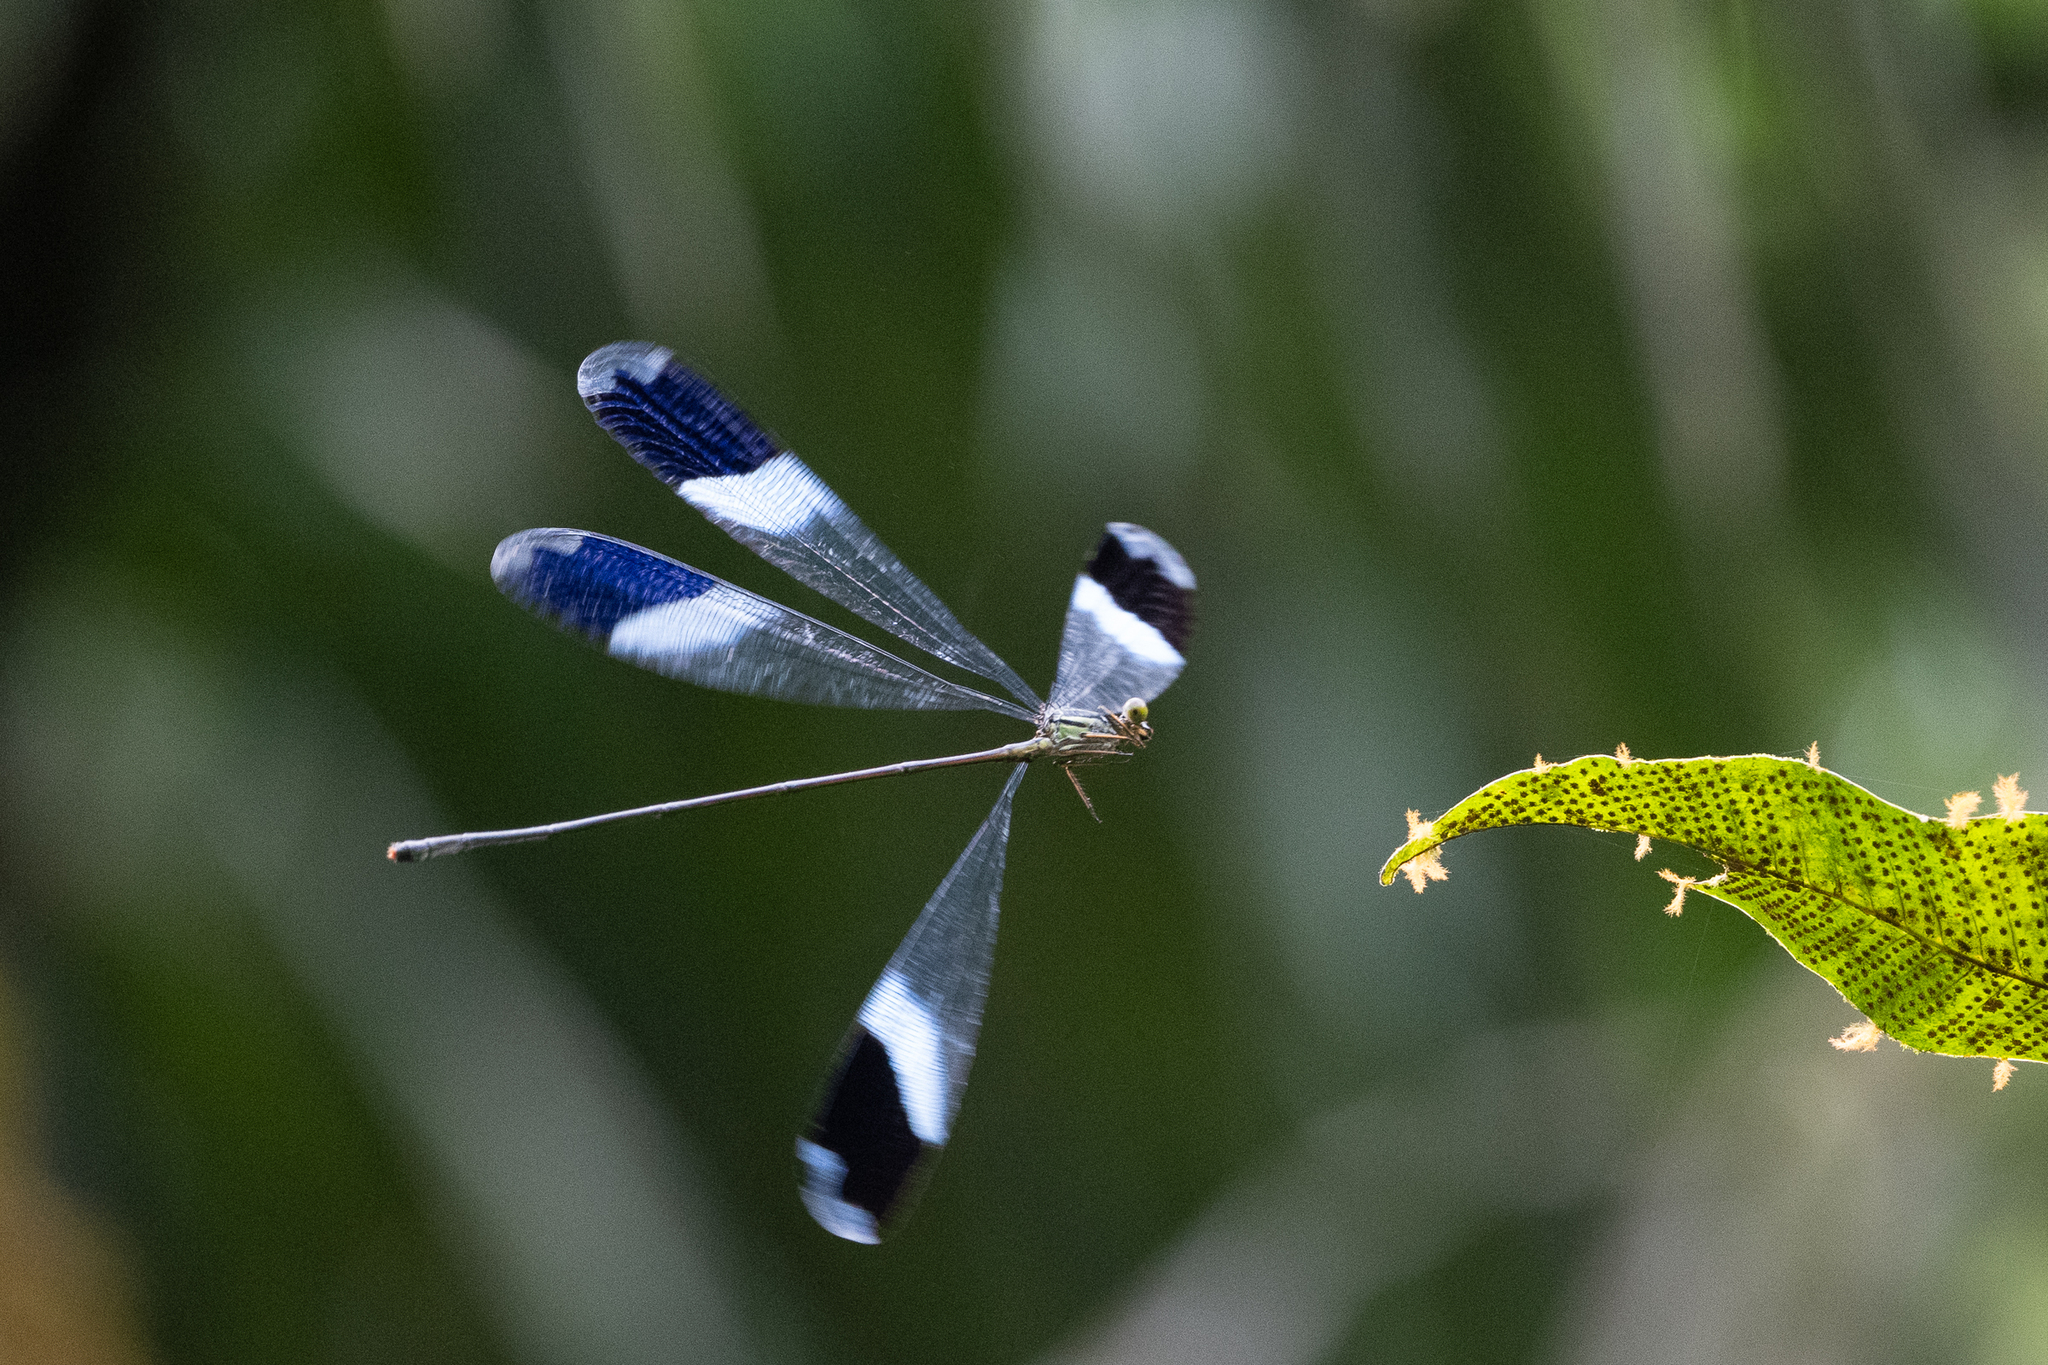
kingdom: Animalia
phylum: Arthropoda
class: Insecta
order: Odonata
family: Coenagrionidae
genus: Megaloprepus
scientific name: Megaloprepus caerulatus
